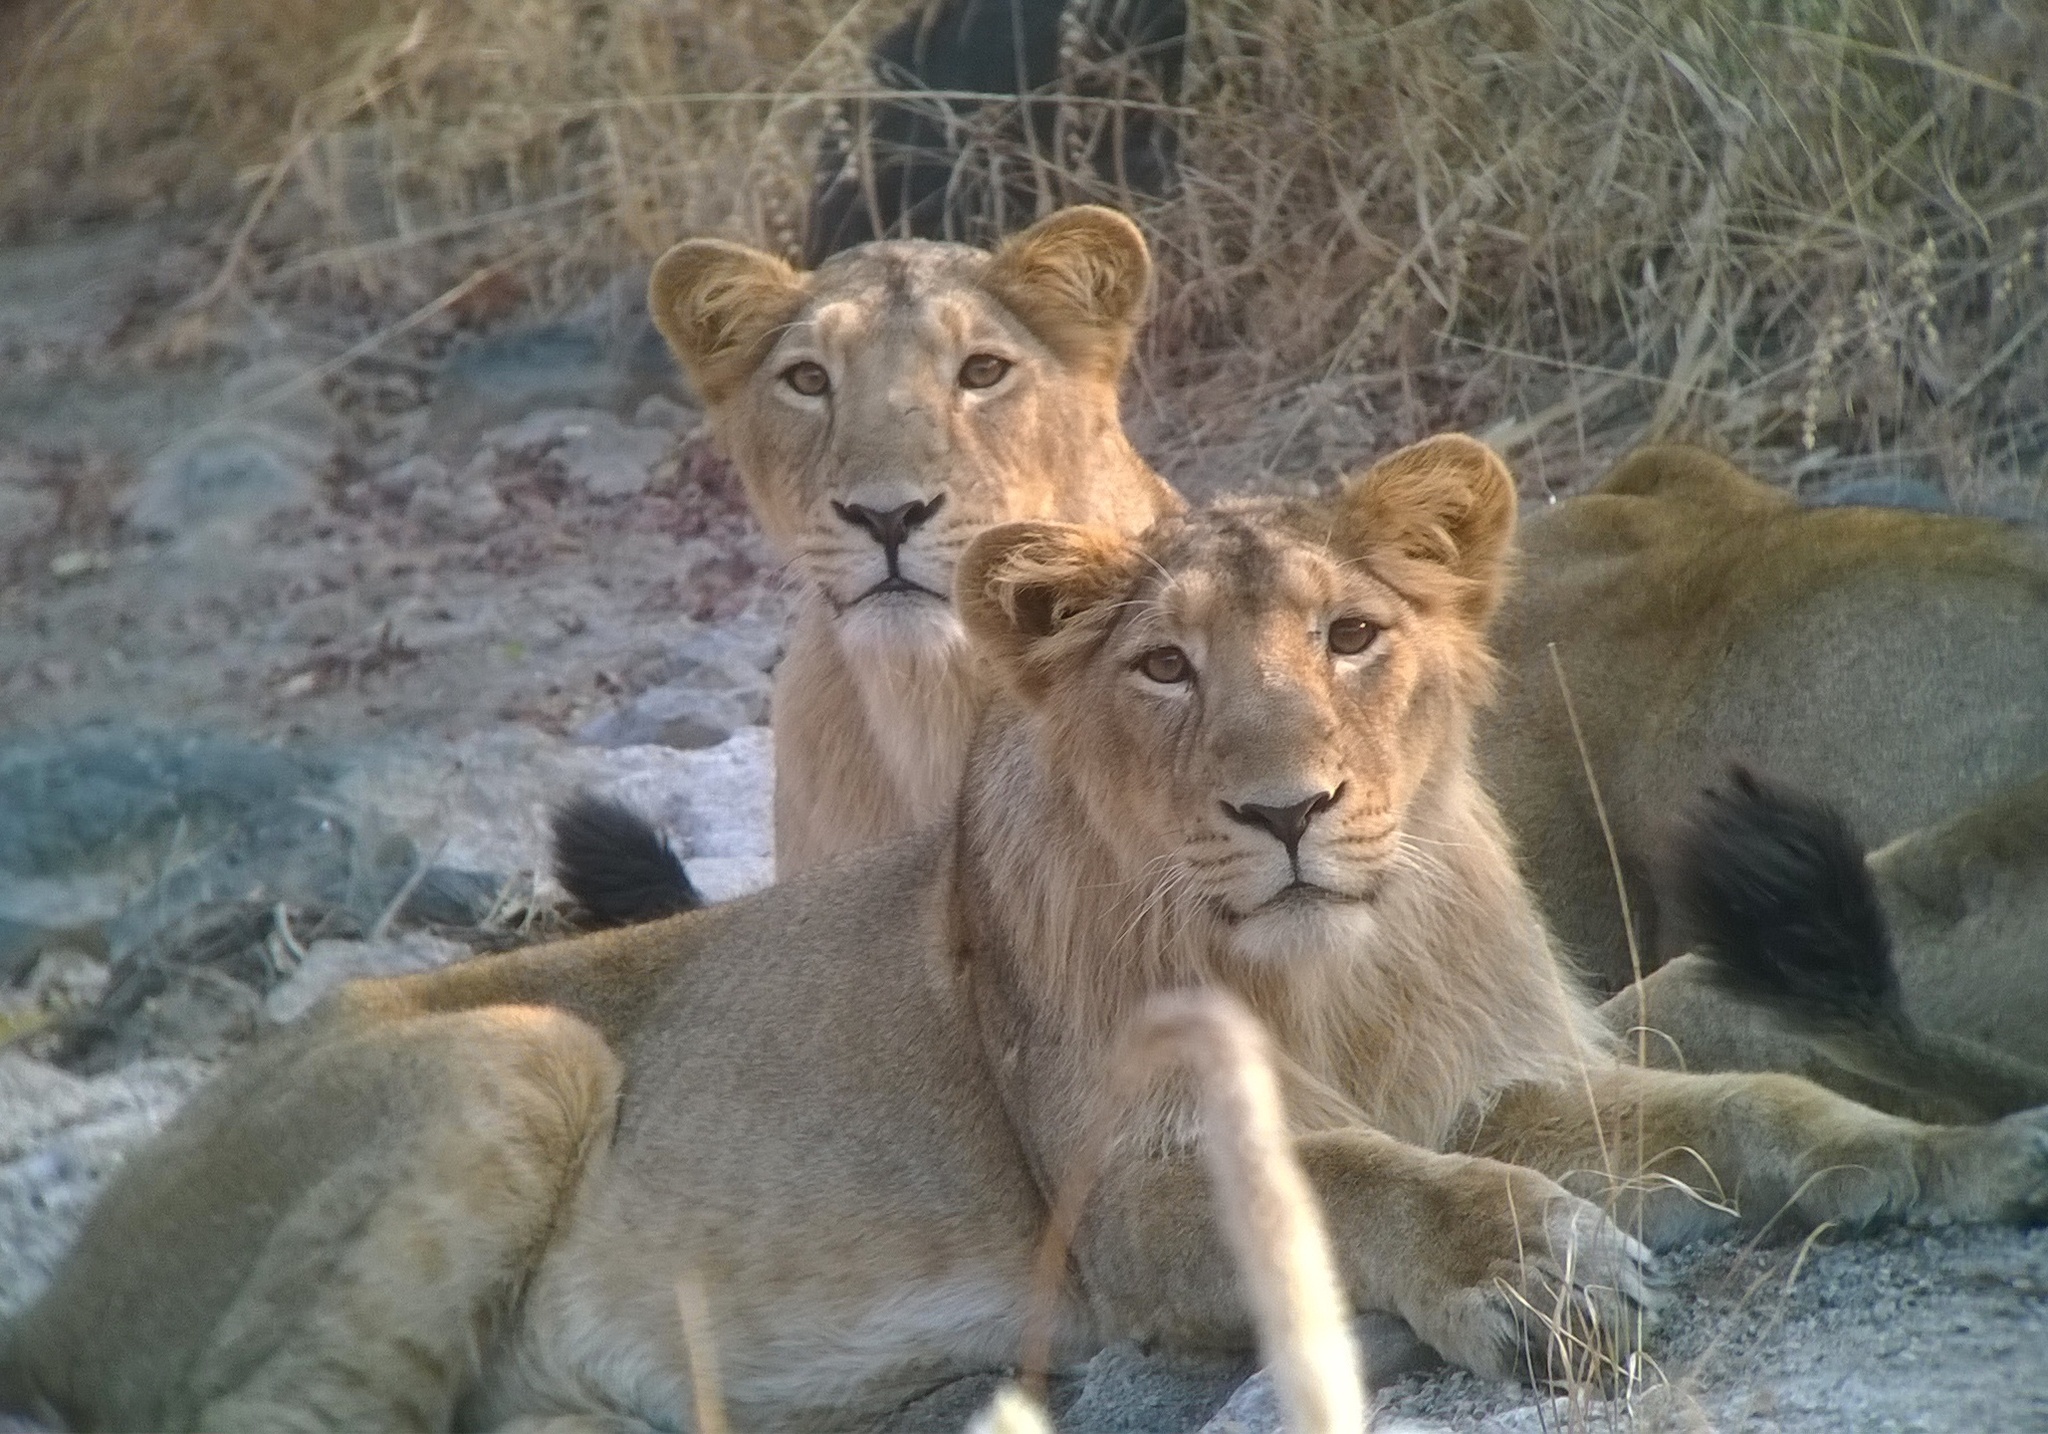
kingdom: Animalia
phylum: Chordata
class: Mammalia
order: Carnivora
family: Felidae
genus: Panthera
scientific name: Panthera leo
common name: Lion
